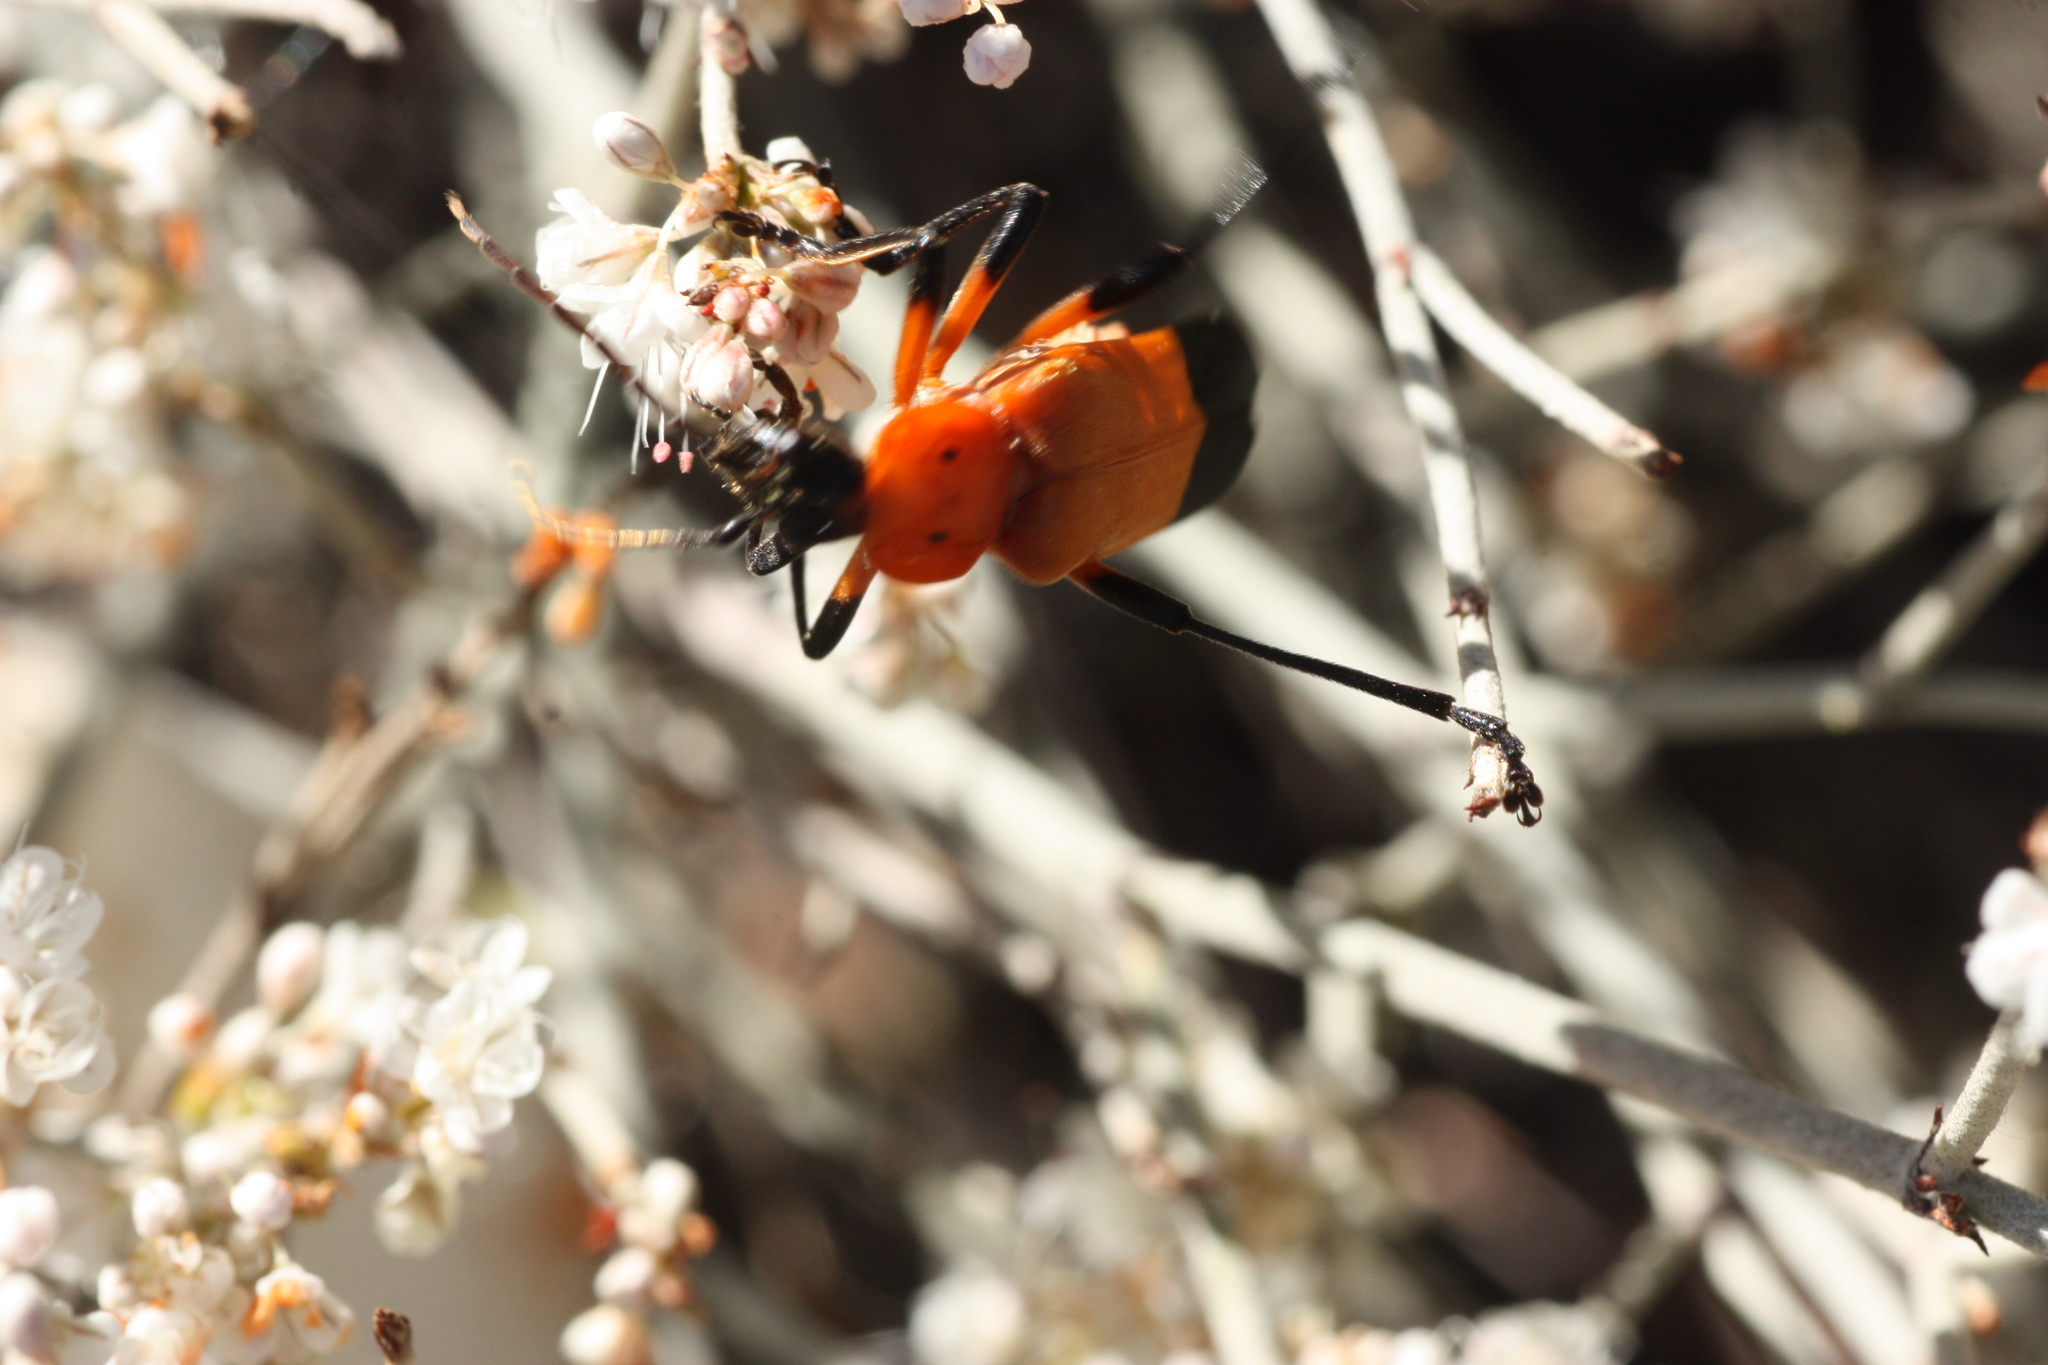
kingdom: Animalia
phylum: Arthropoda
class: Insecta
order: Coleoptera
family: Cantharidae
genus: Chauliognathus
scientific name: Chauliognathus profundus
